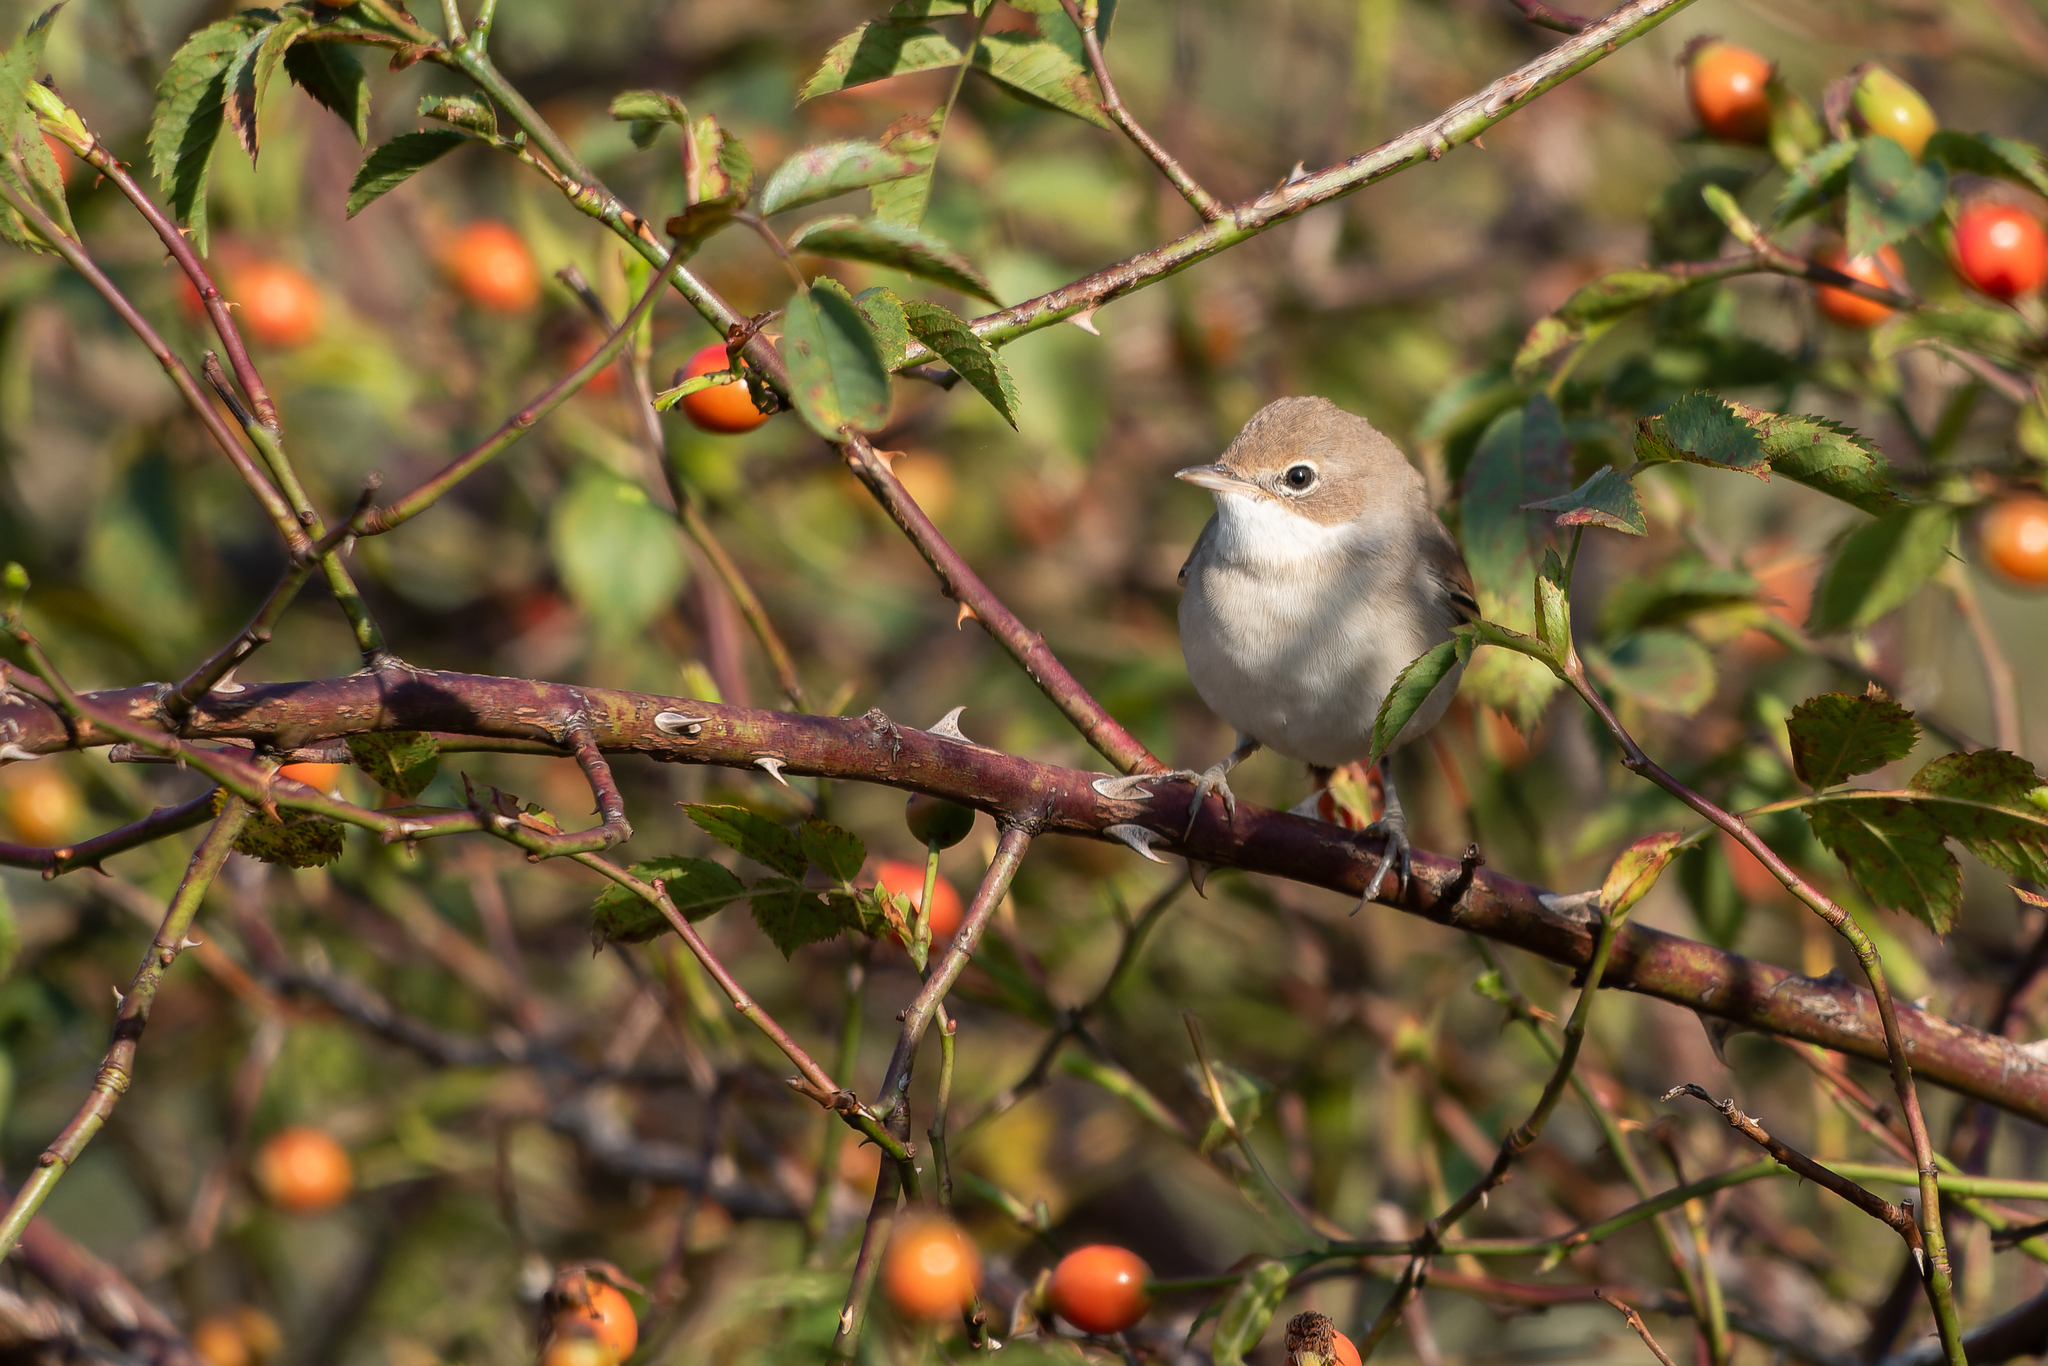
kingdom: Animalia
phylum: Chordata
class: Aves
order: Passeriformes
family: Sylviidae
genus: Sylvia
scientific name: Sylvia communis
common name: Common whitethroat
